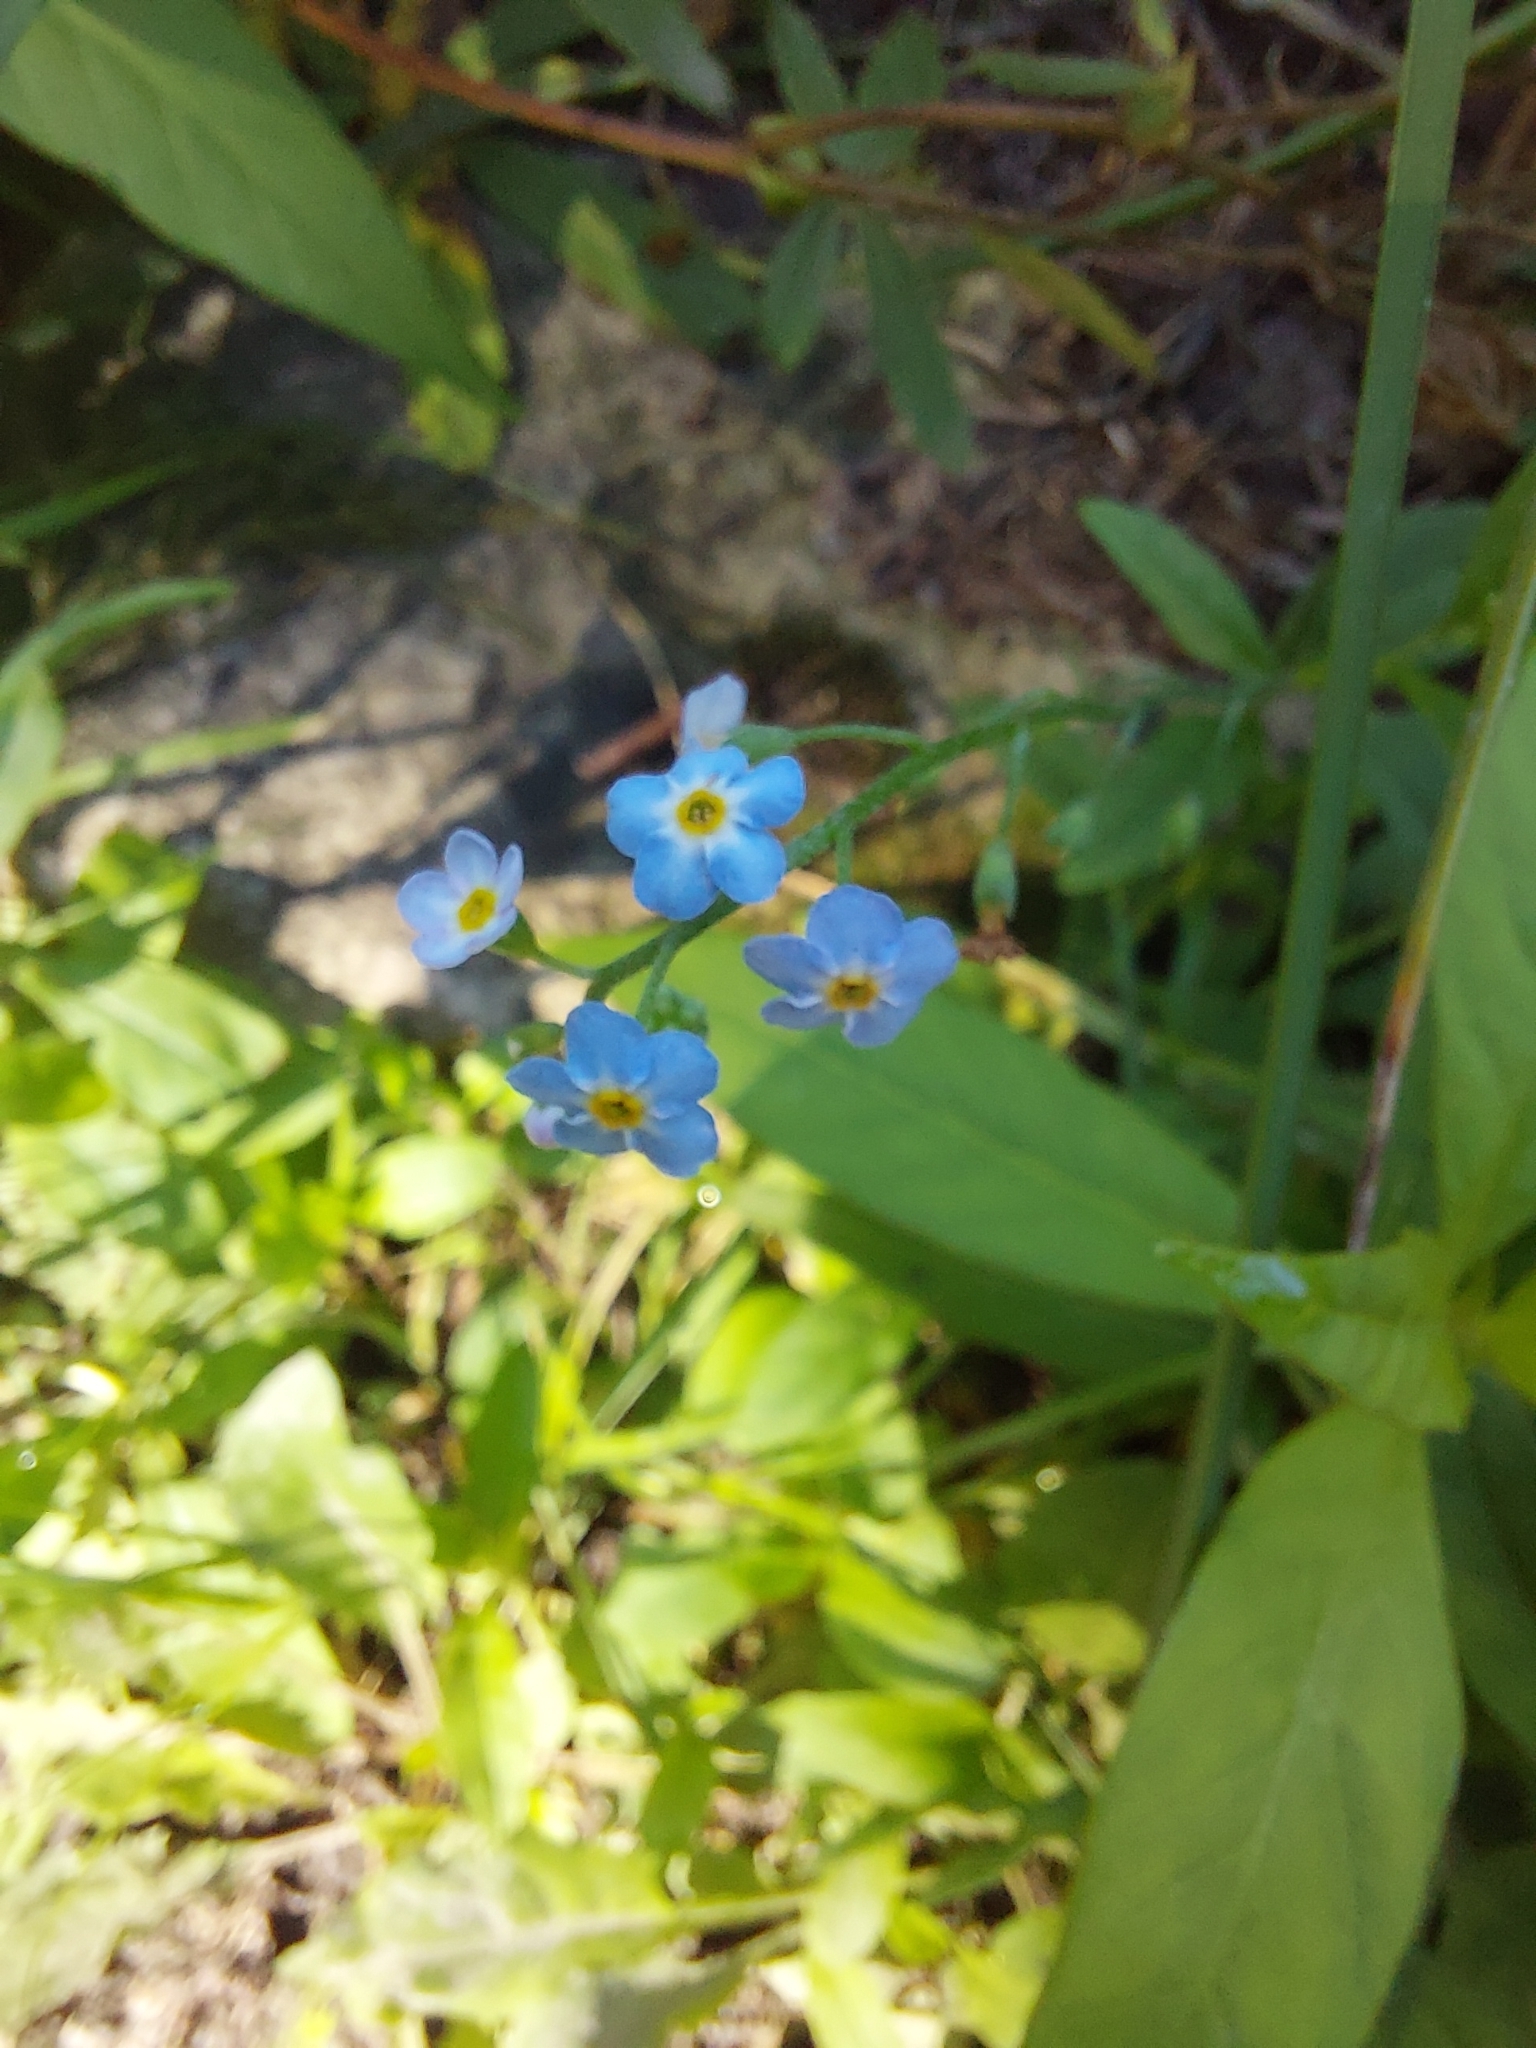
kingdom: Plantae
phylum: Tracheophyta
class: Magnoliopsida
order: Boraginales
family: Boraginaceae
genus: Myosotis
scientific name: Myosotis scorpioides
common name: Water forget-me-not
